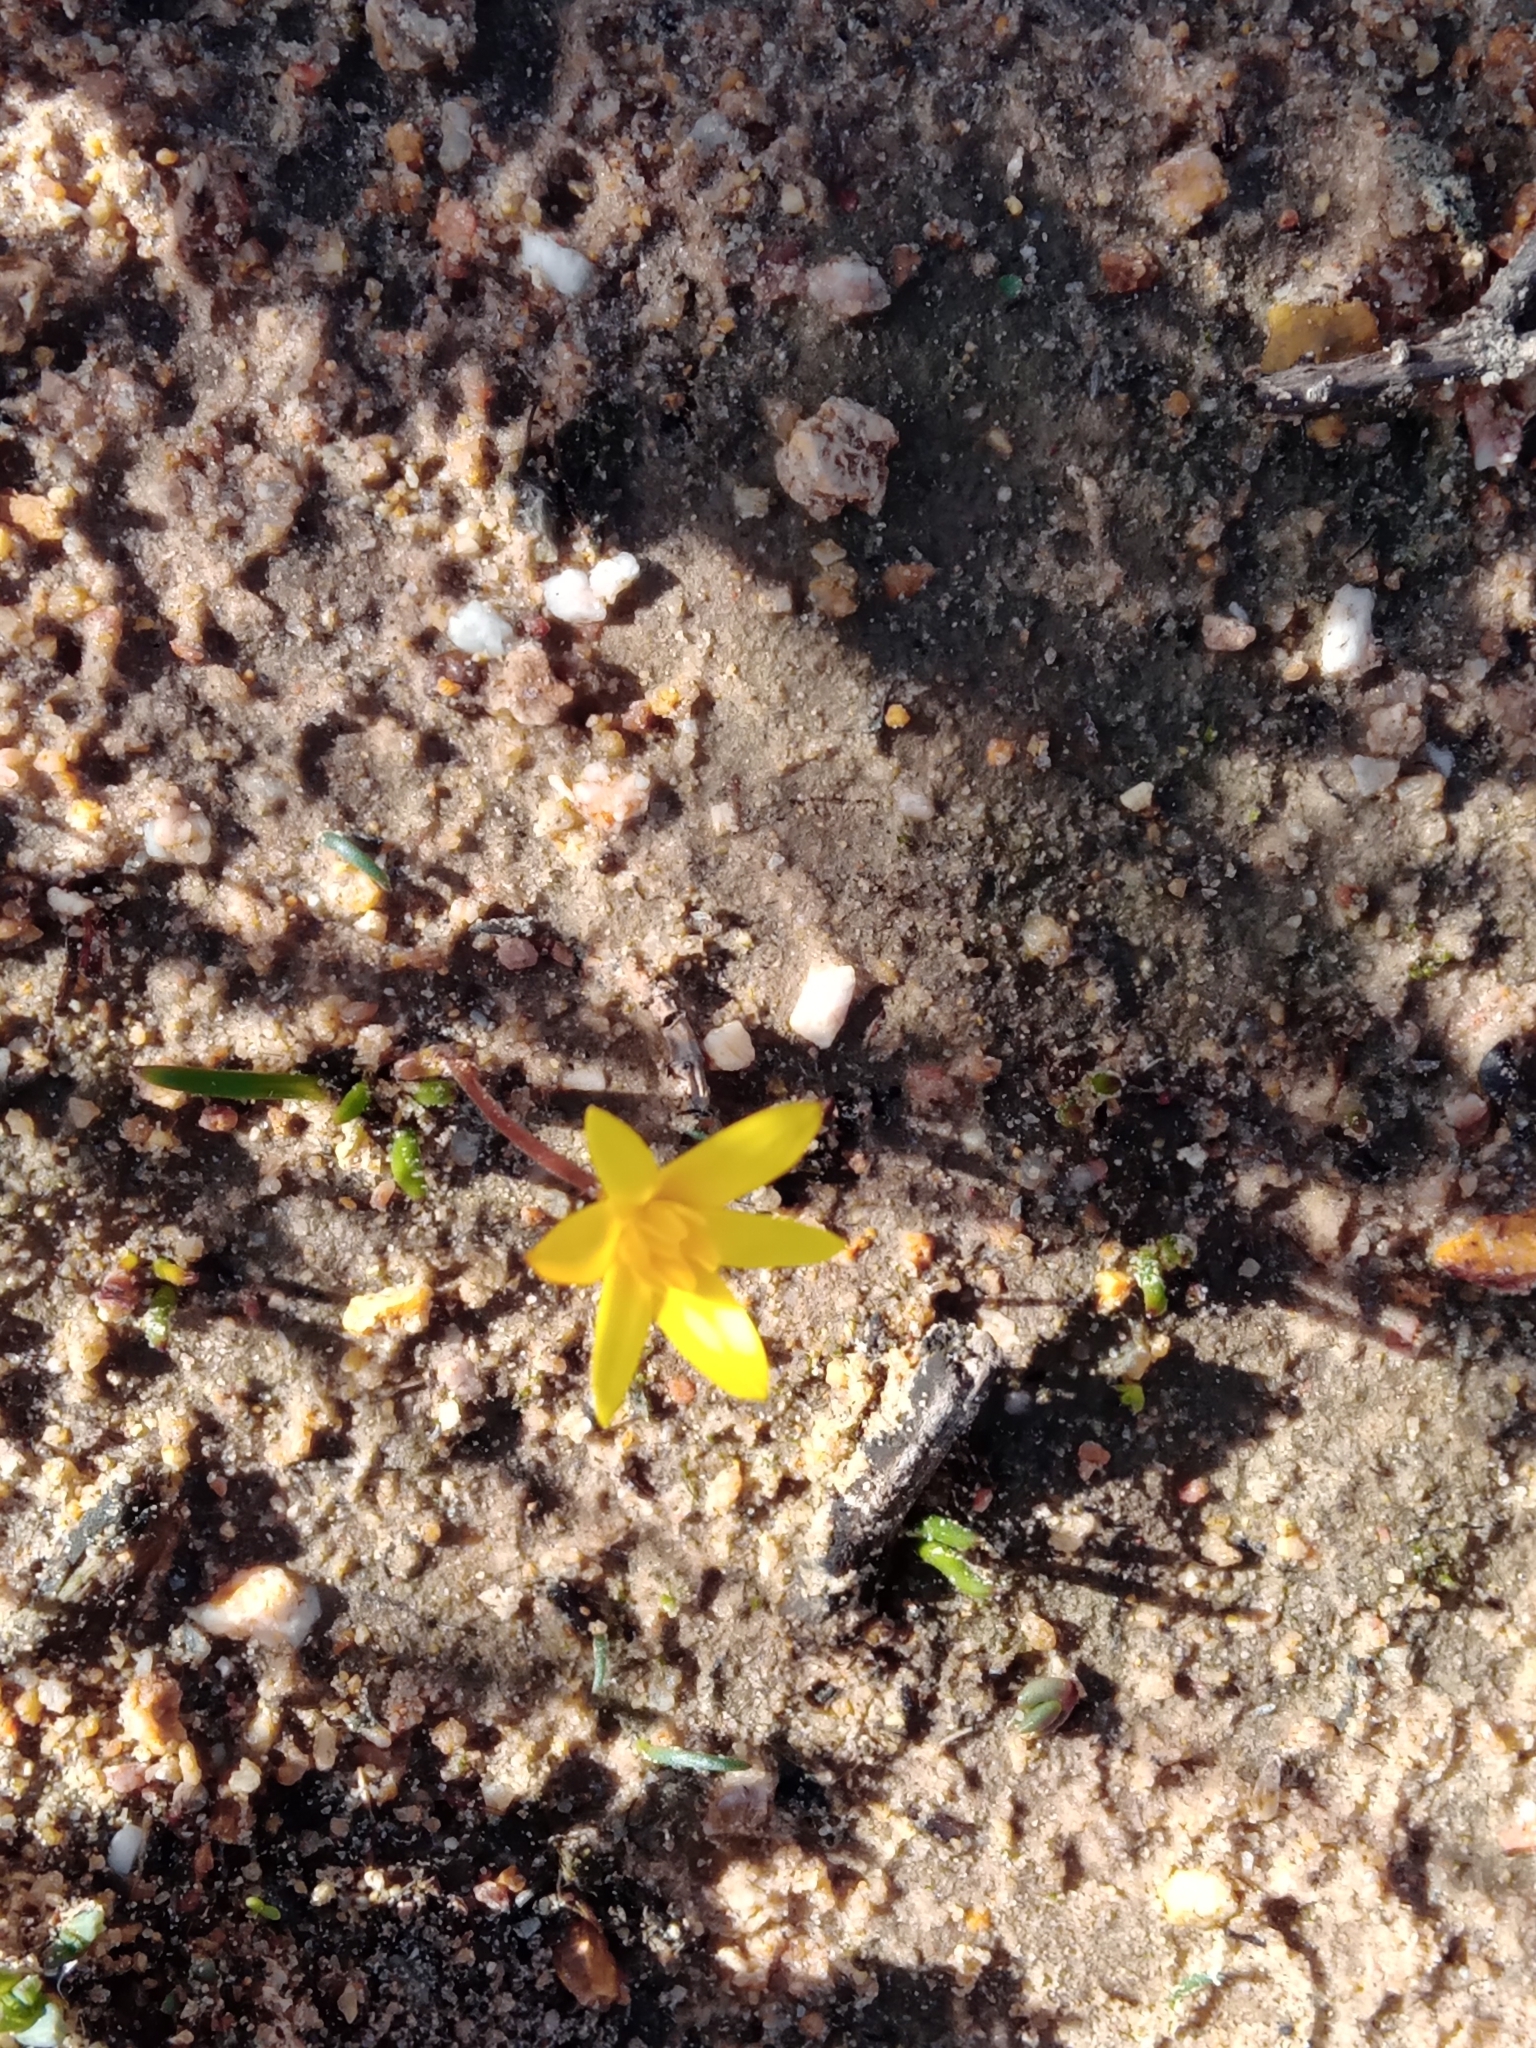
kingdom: Plantae
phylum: Tracheophyta
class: Liliopsida
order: Asparagales
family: Hypoxidaceae
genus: Pauridia
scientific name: Pauridia affinis
